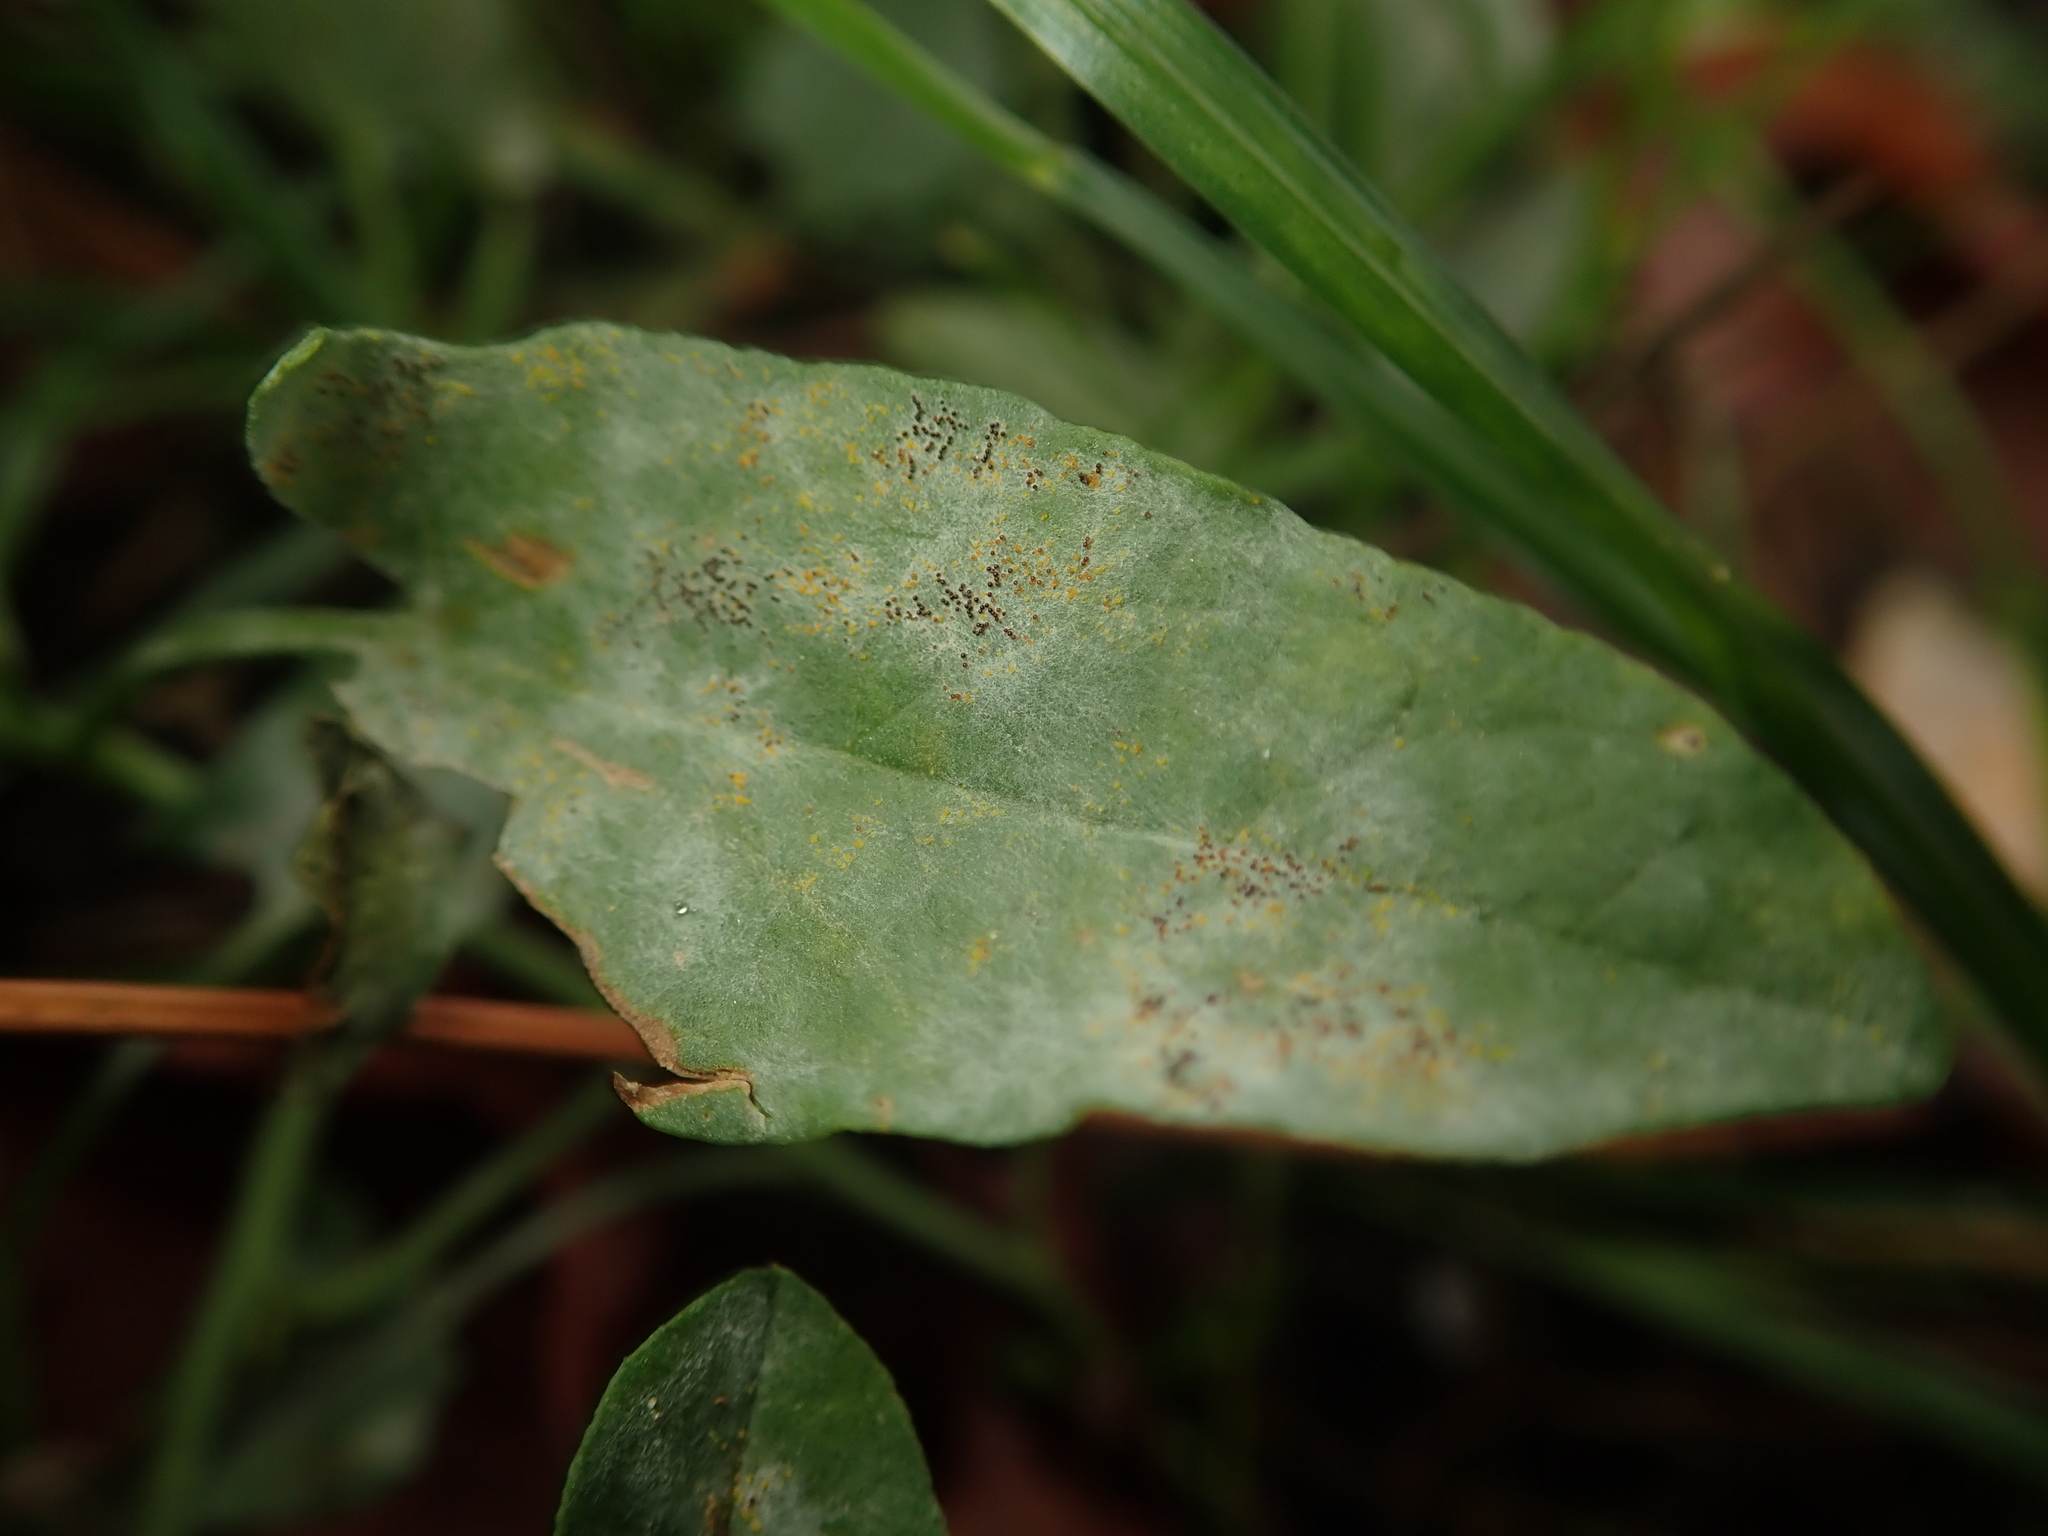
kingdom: Fungi
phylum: Ascomycota
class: Leotiomycetes
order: Helotiales
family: Erysiphaceae
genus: Erysiphe
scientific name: Erysiphe convolvuli
